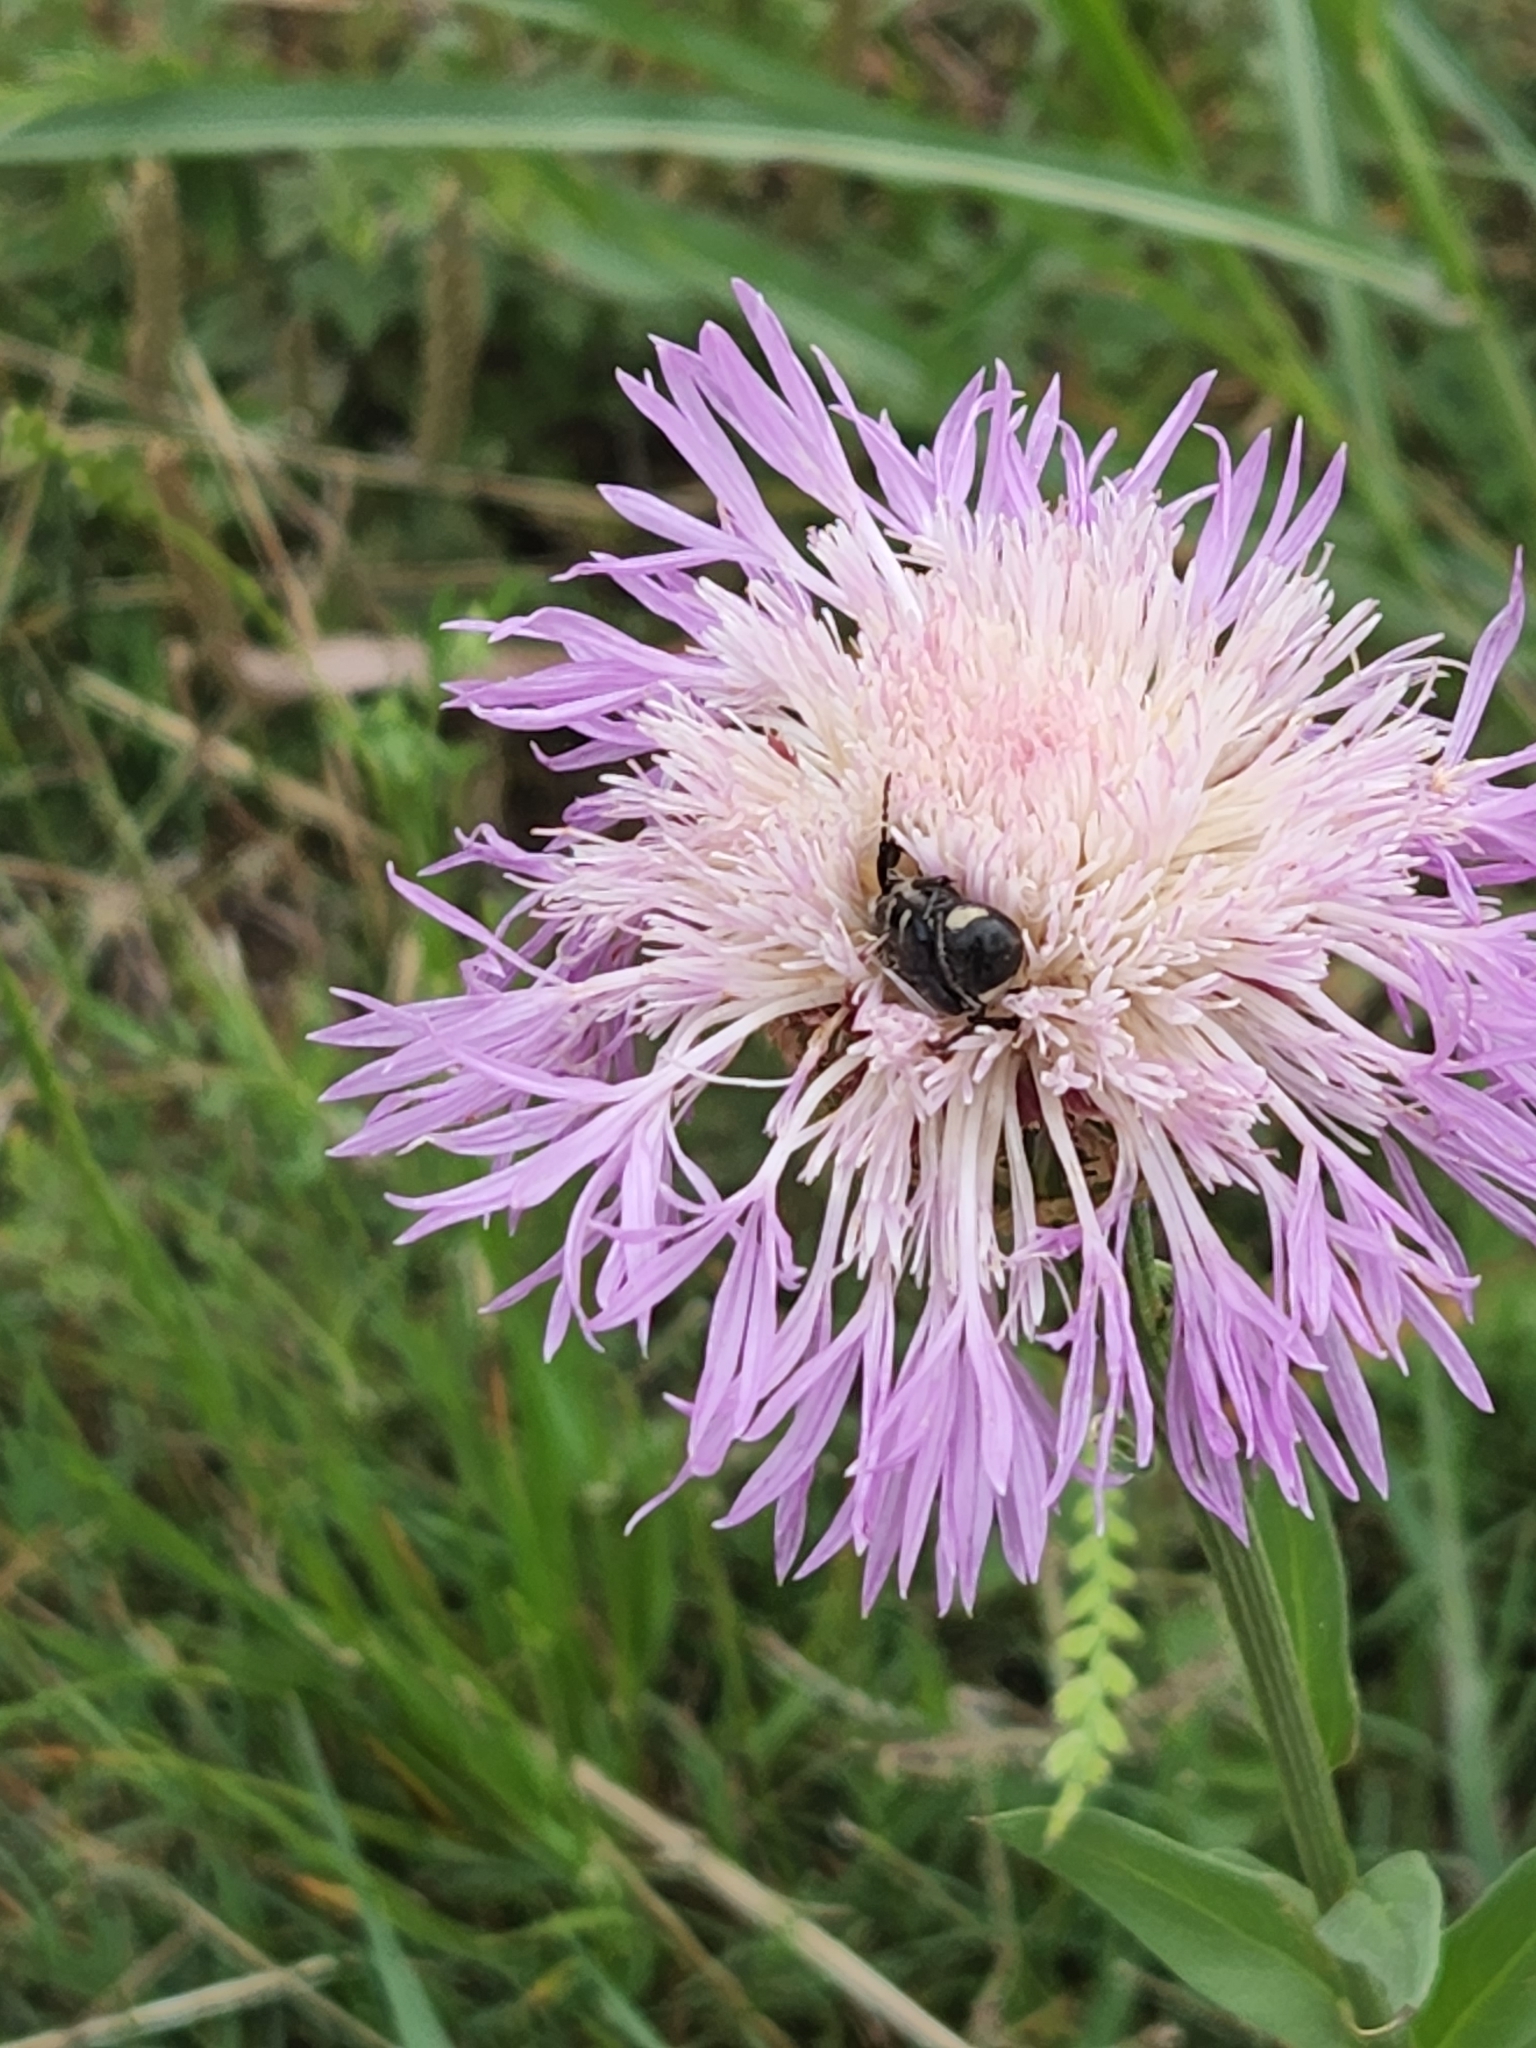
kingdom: Plantae
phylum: Tracheophyta
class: Magnoliopsida
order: Asterales
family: Asteraceae
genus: Plectocephalus
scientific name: Plectocephalus americanus
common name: American basket-flower
